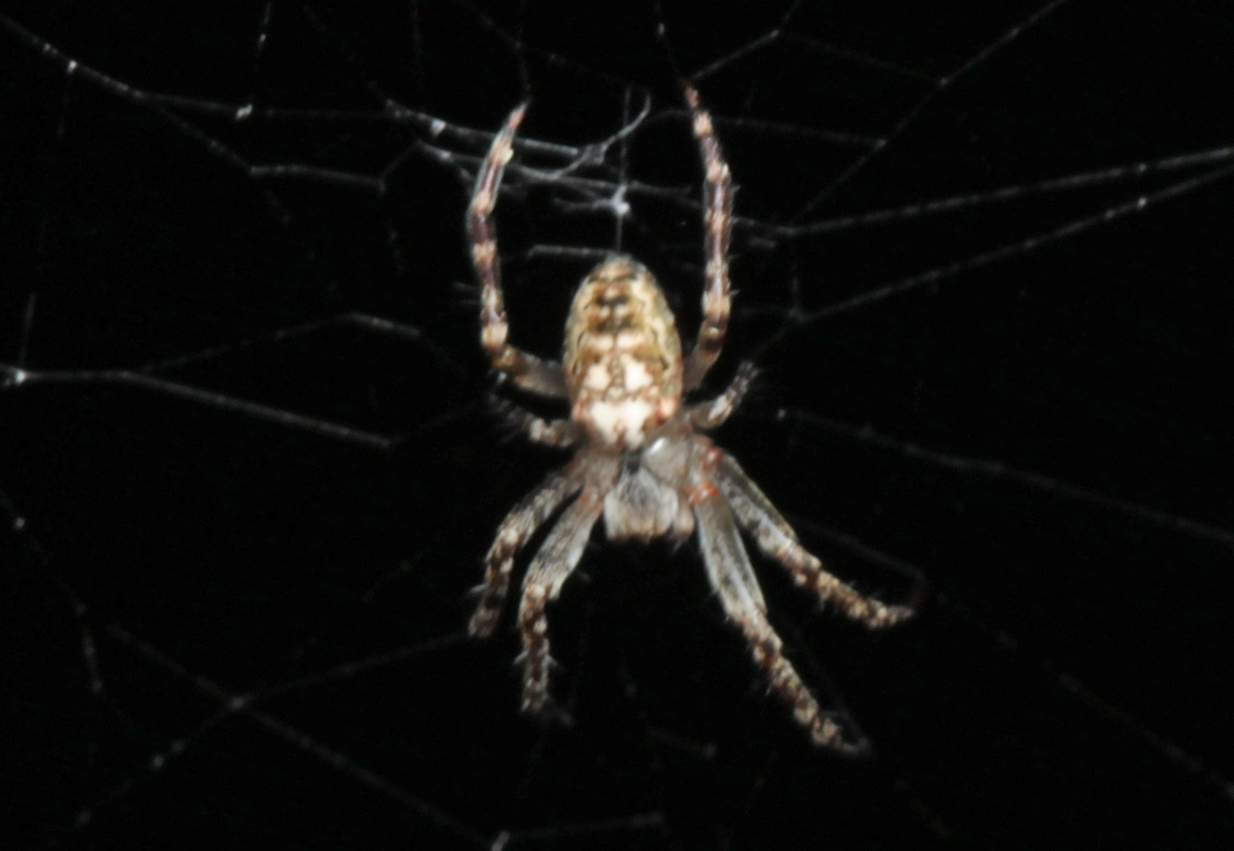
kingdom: Animalia
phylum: Arthropoda
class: Arachnida
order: Araneae
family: Araneidae
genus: Plebs
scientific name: Plebs eburnus
